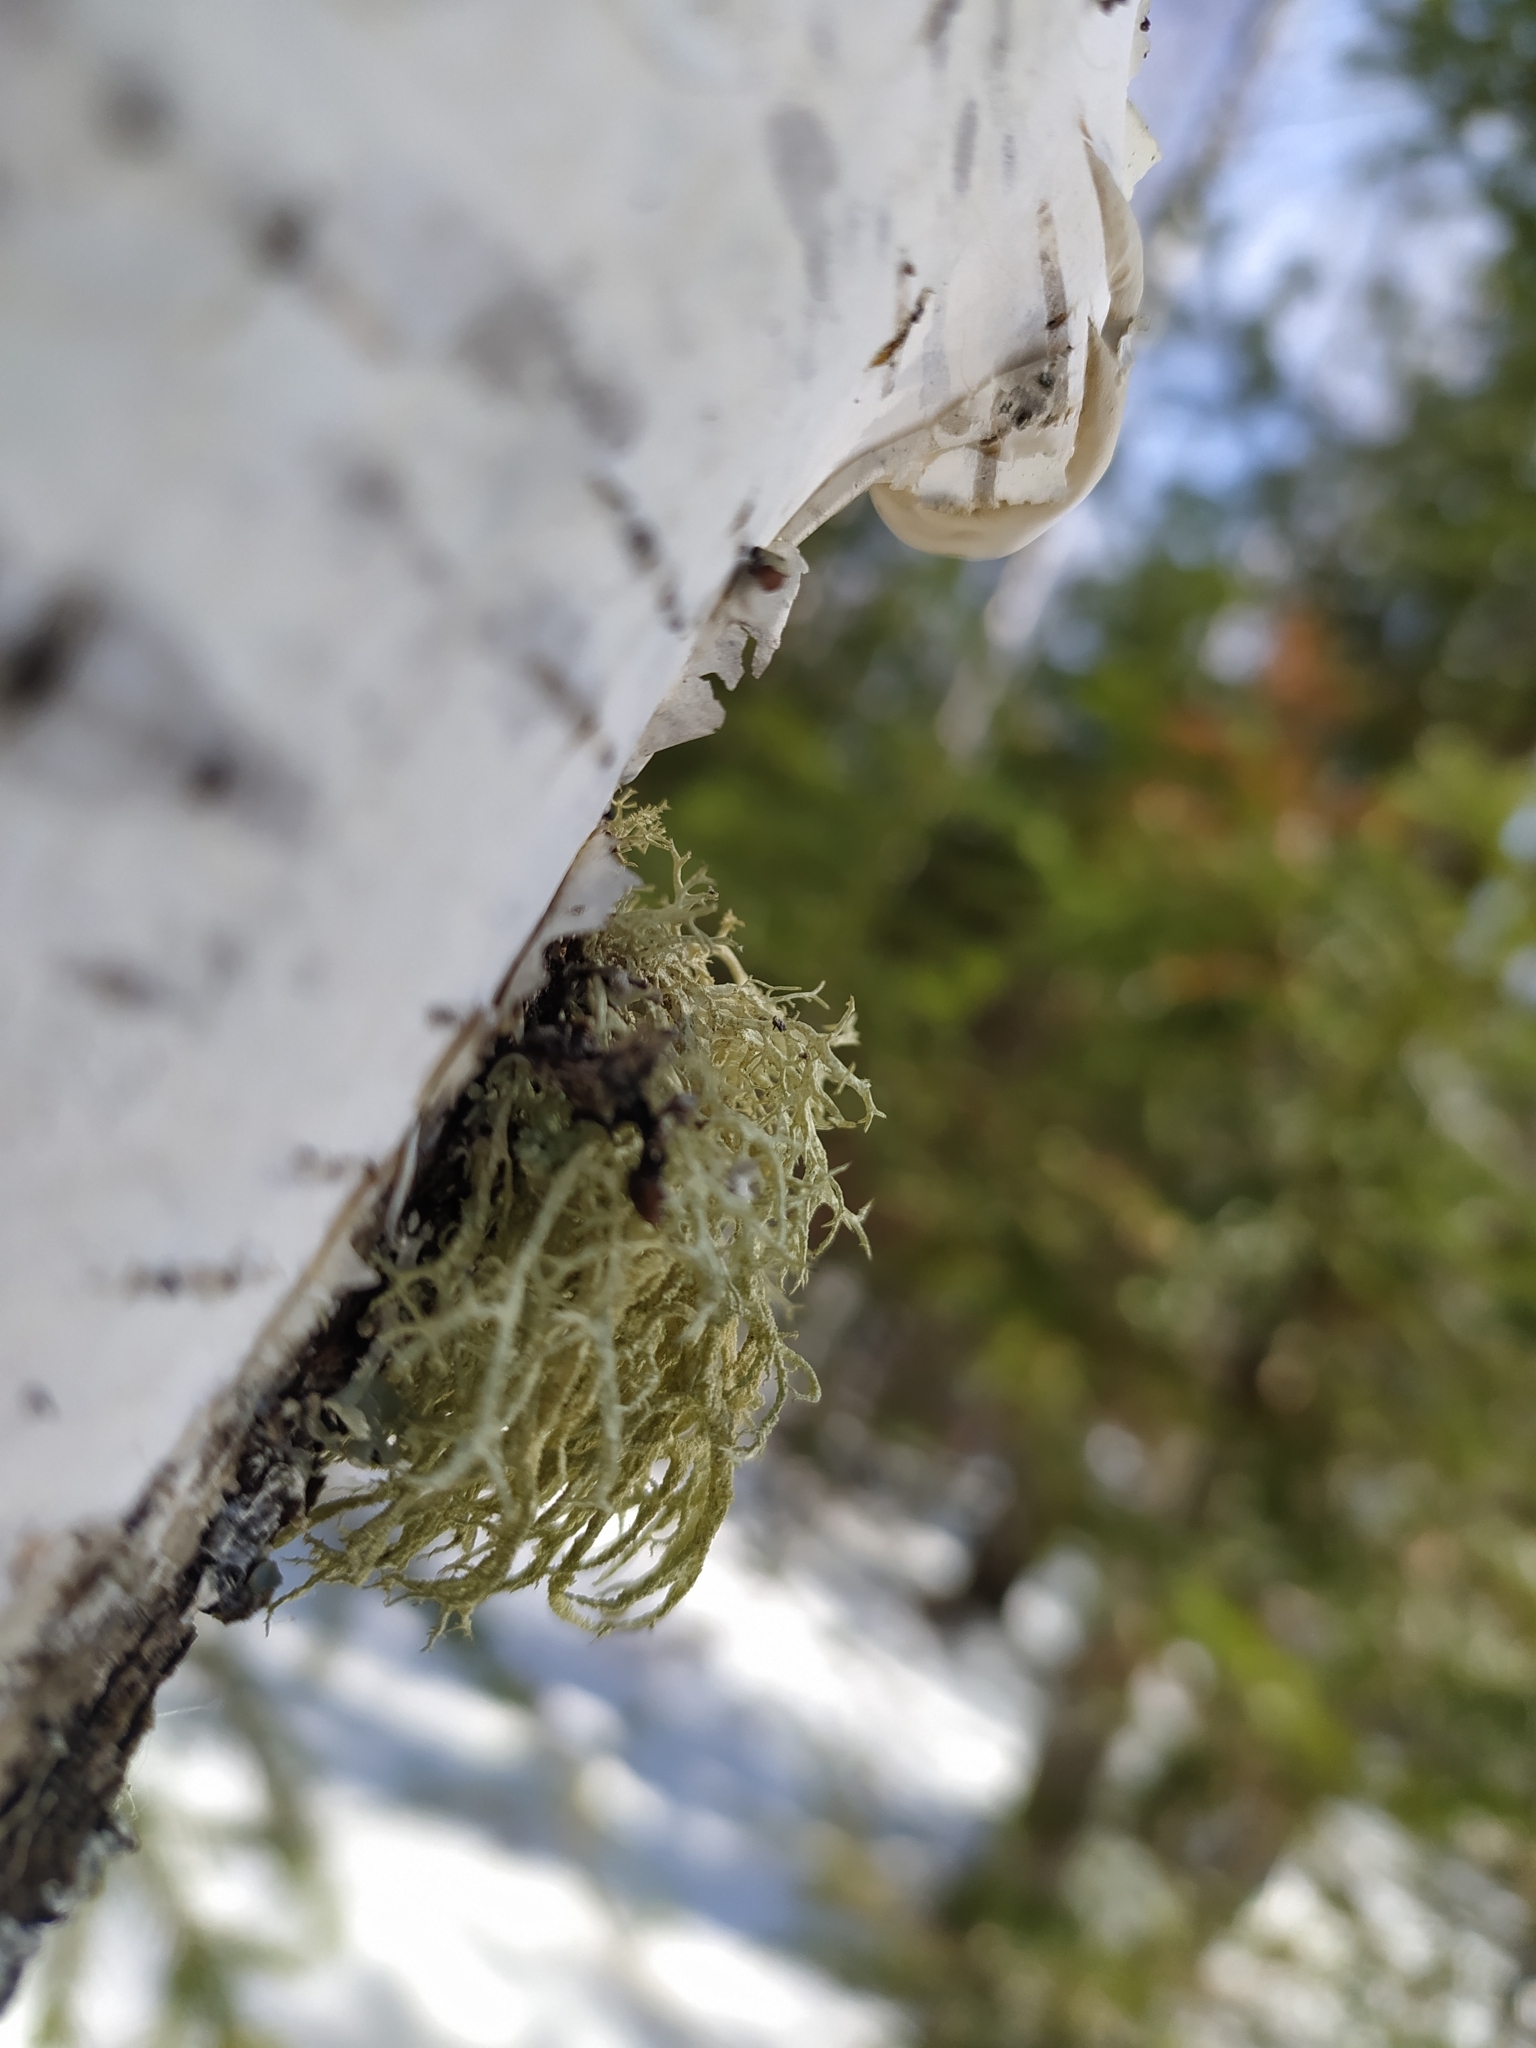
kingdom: Fungi
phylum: Ascomycota
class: Lecanoromycetes
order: Lecanorales
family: Parmeliaceae
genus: Evernia
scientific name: Evernia mesomorpha
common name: Boreal oak moss lichen
